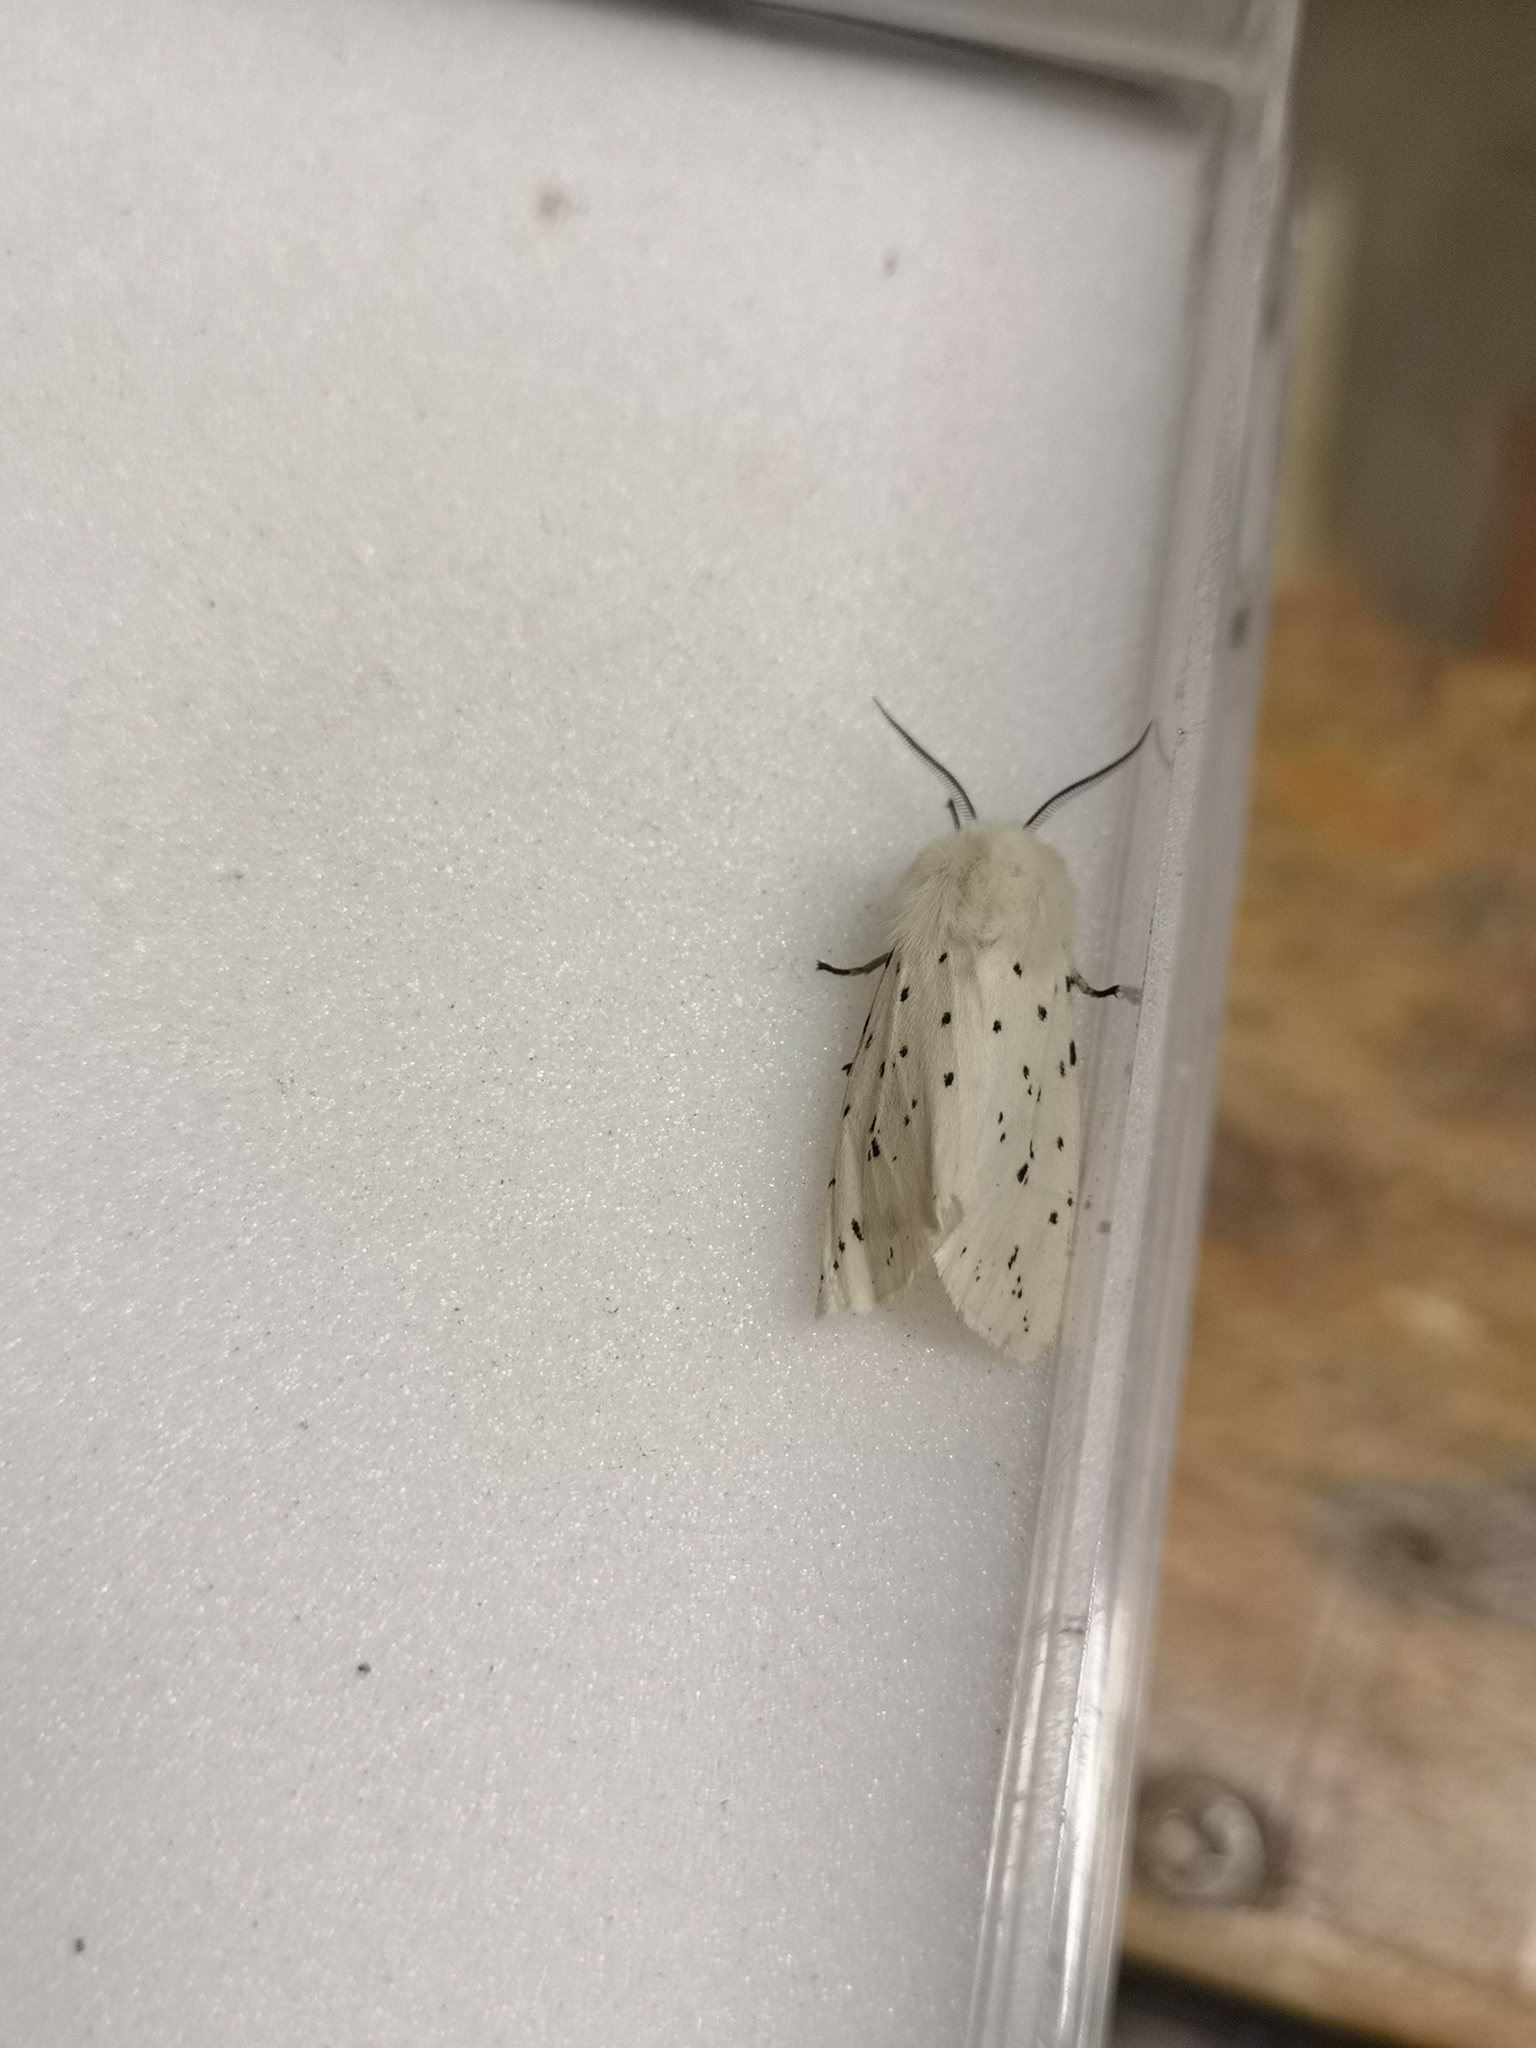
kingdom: Animalia
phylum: Arthropoda
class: Insecta
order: Lepidoptera
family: Erebidae
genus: Spilosoma
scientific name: Spilosoma lubricipeda
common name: White ermine
